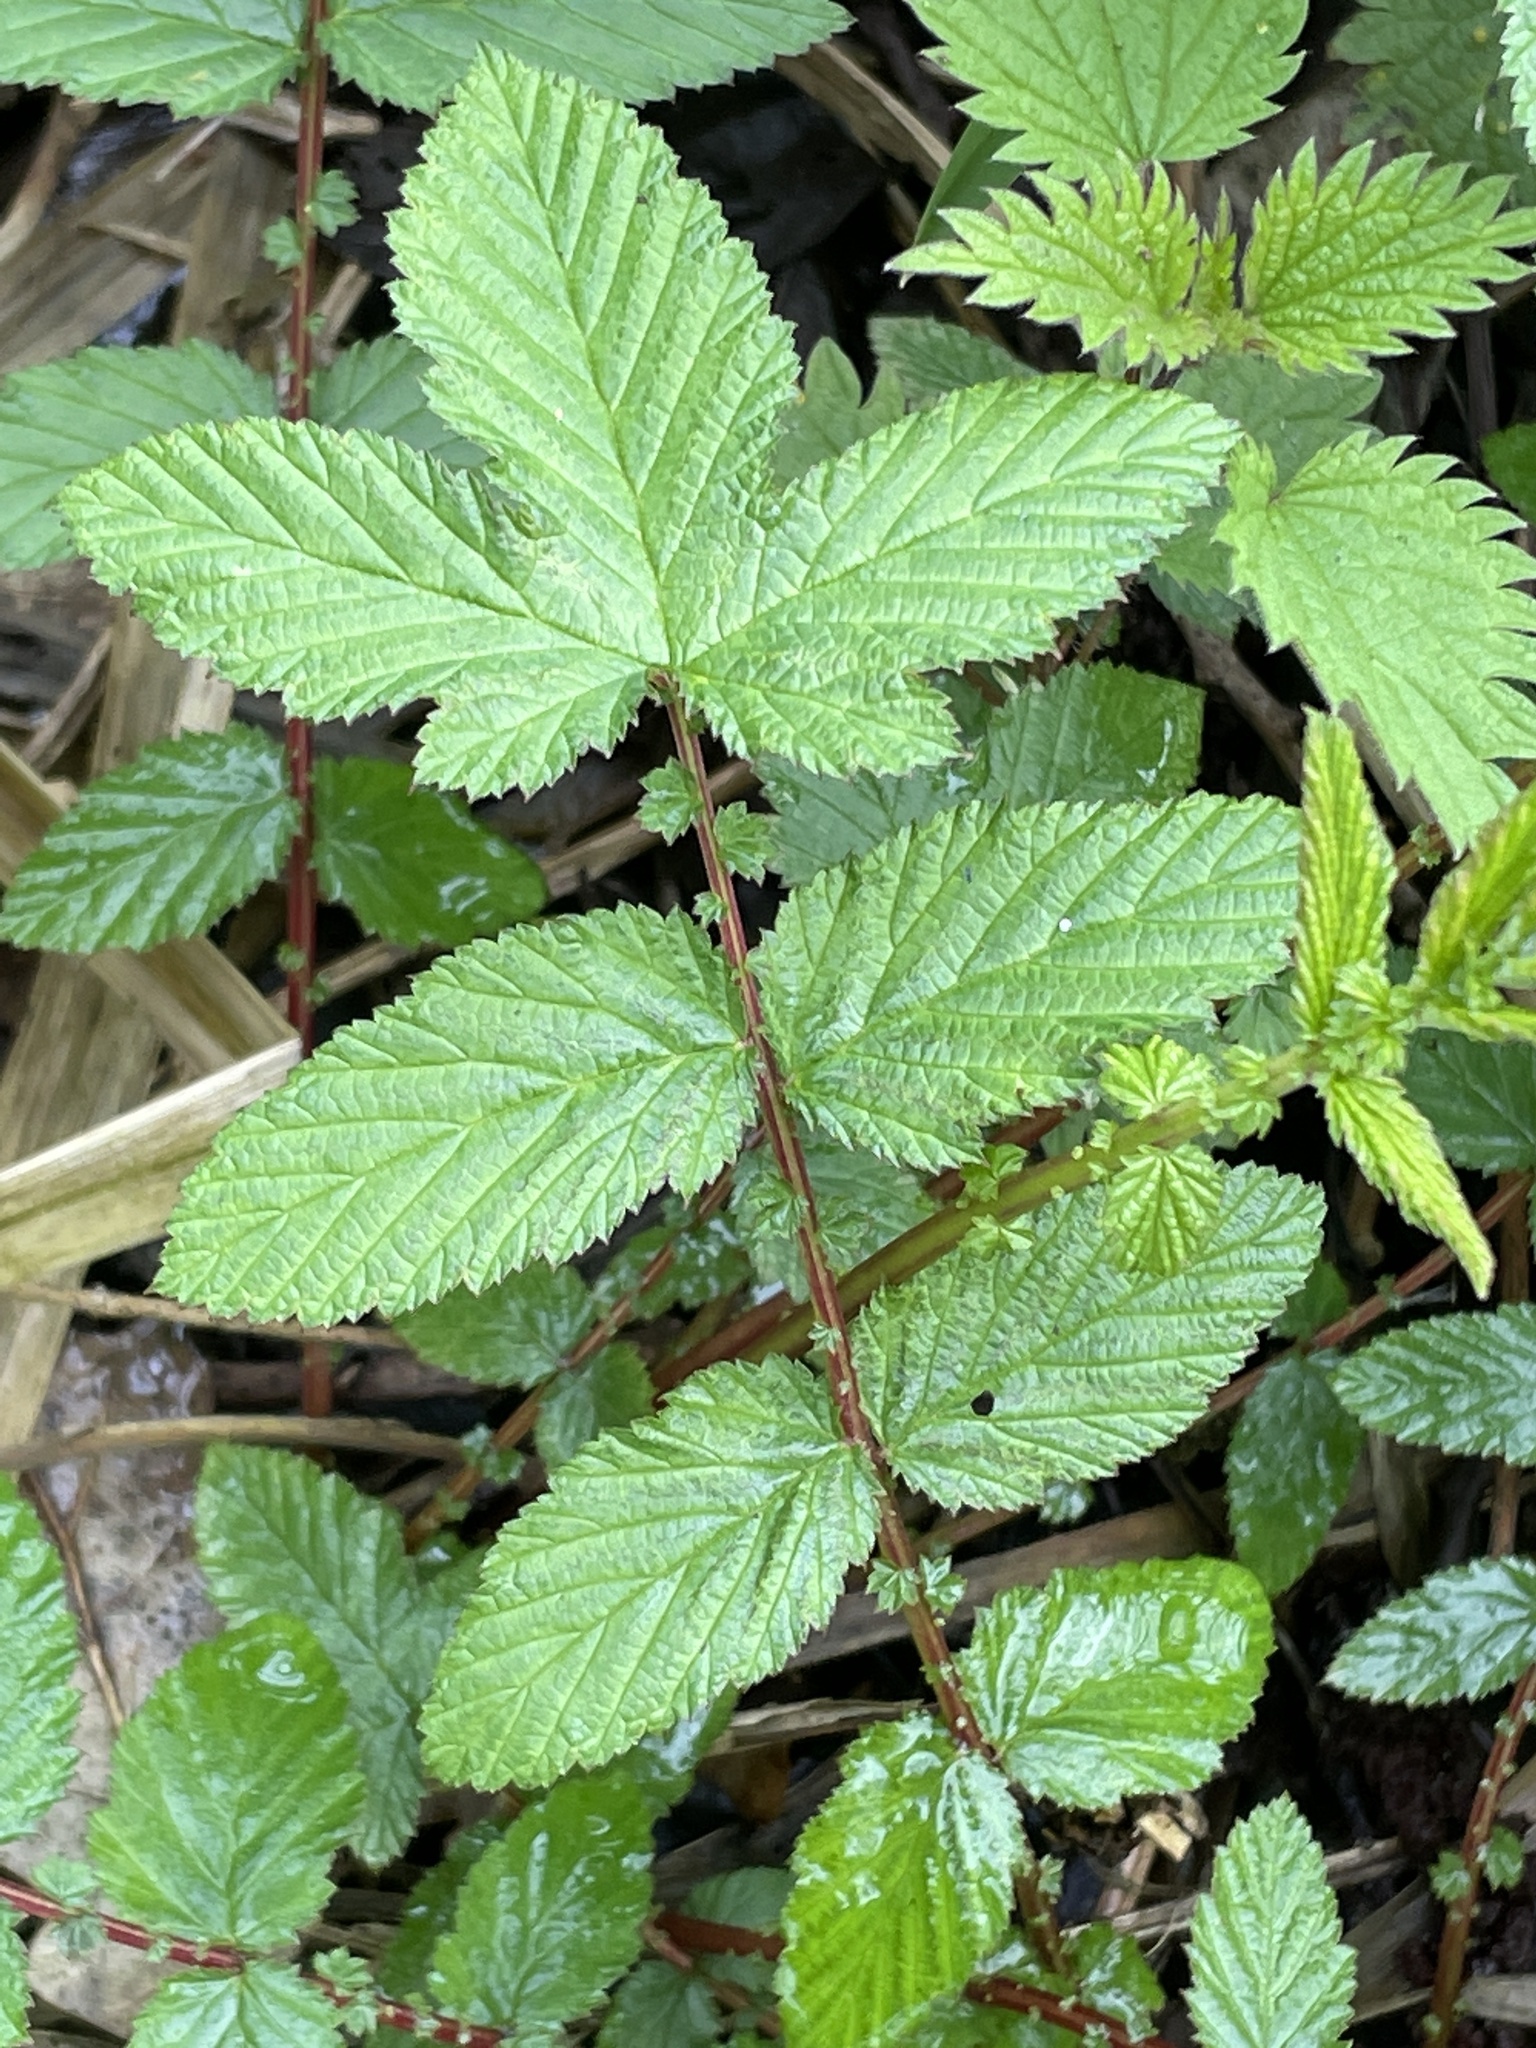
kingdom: Plantae
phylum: Tracheophyta
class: Magnoliopsida
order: Rosales
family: Rosaceae
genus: Filipendula
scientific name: Filipendula ulmaria
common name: Meadowsweet
